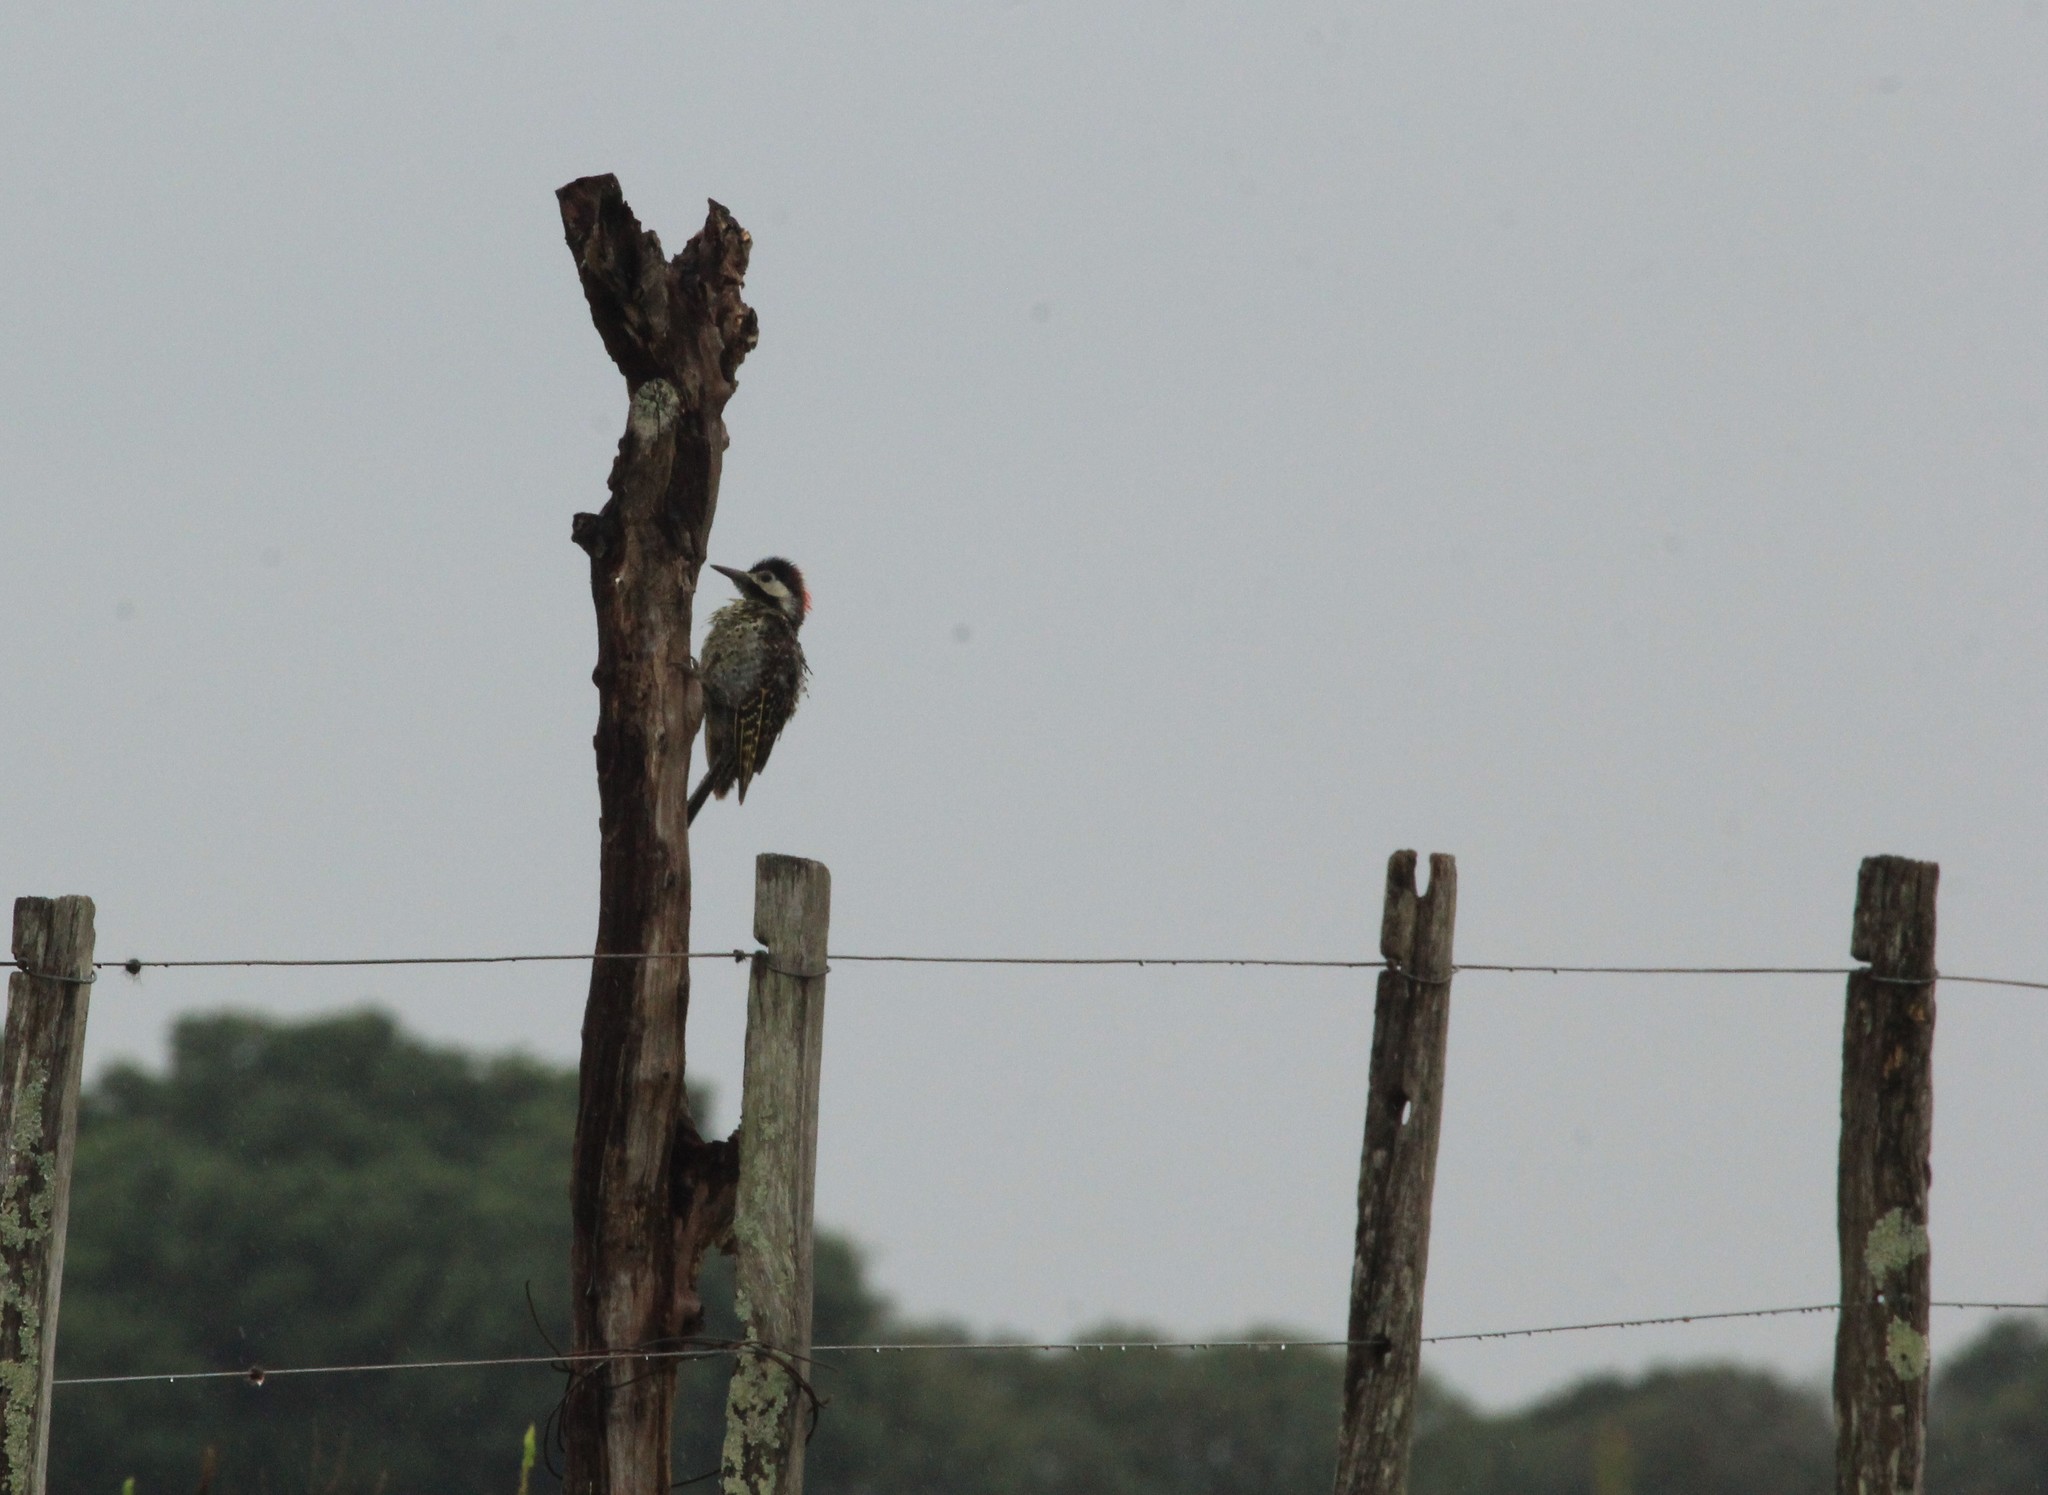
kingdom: Animalia
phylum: Chordata
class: Aves
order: Piciformes
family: Picidae
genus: Colaptes
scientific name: Colaptes melanochloros
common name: Green-barred woodpecker
